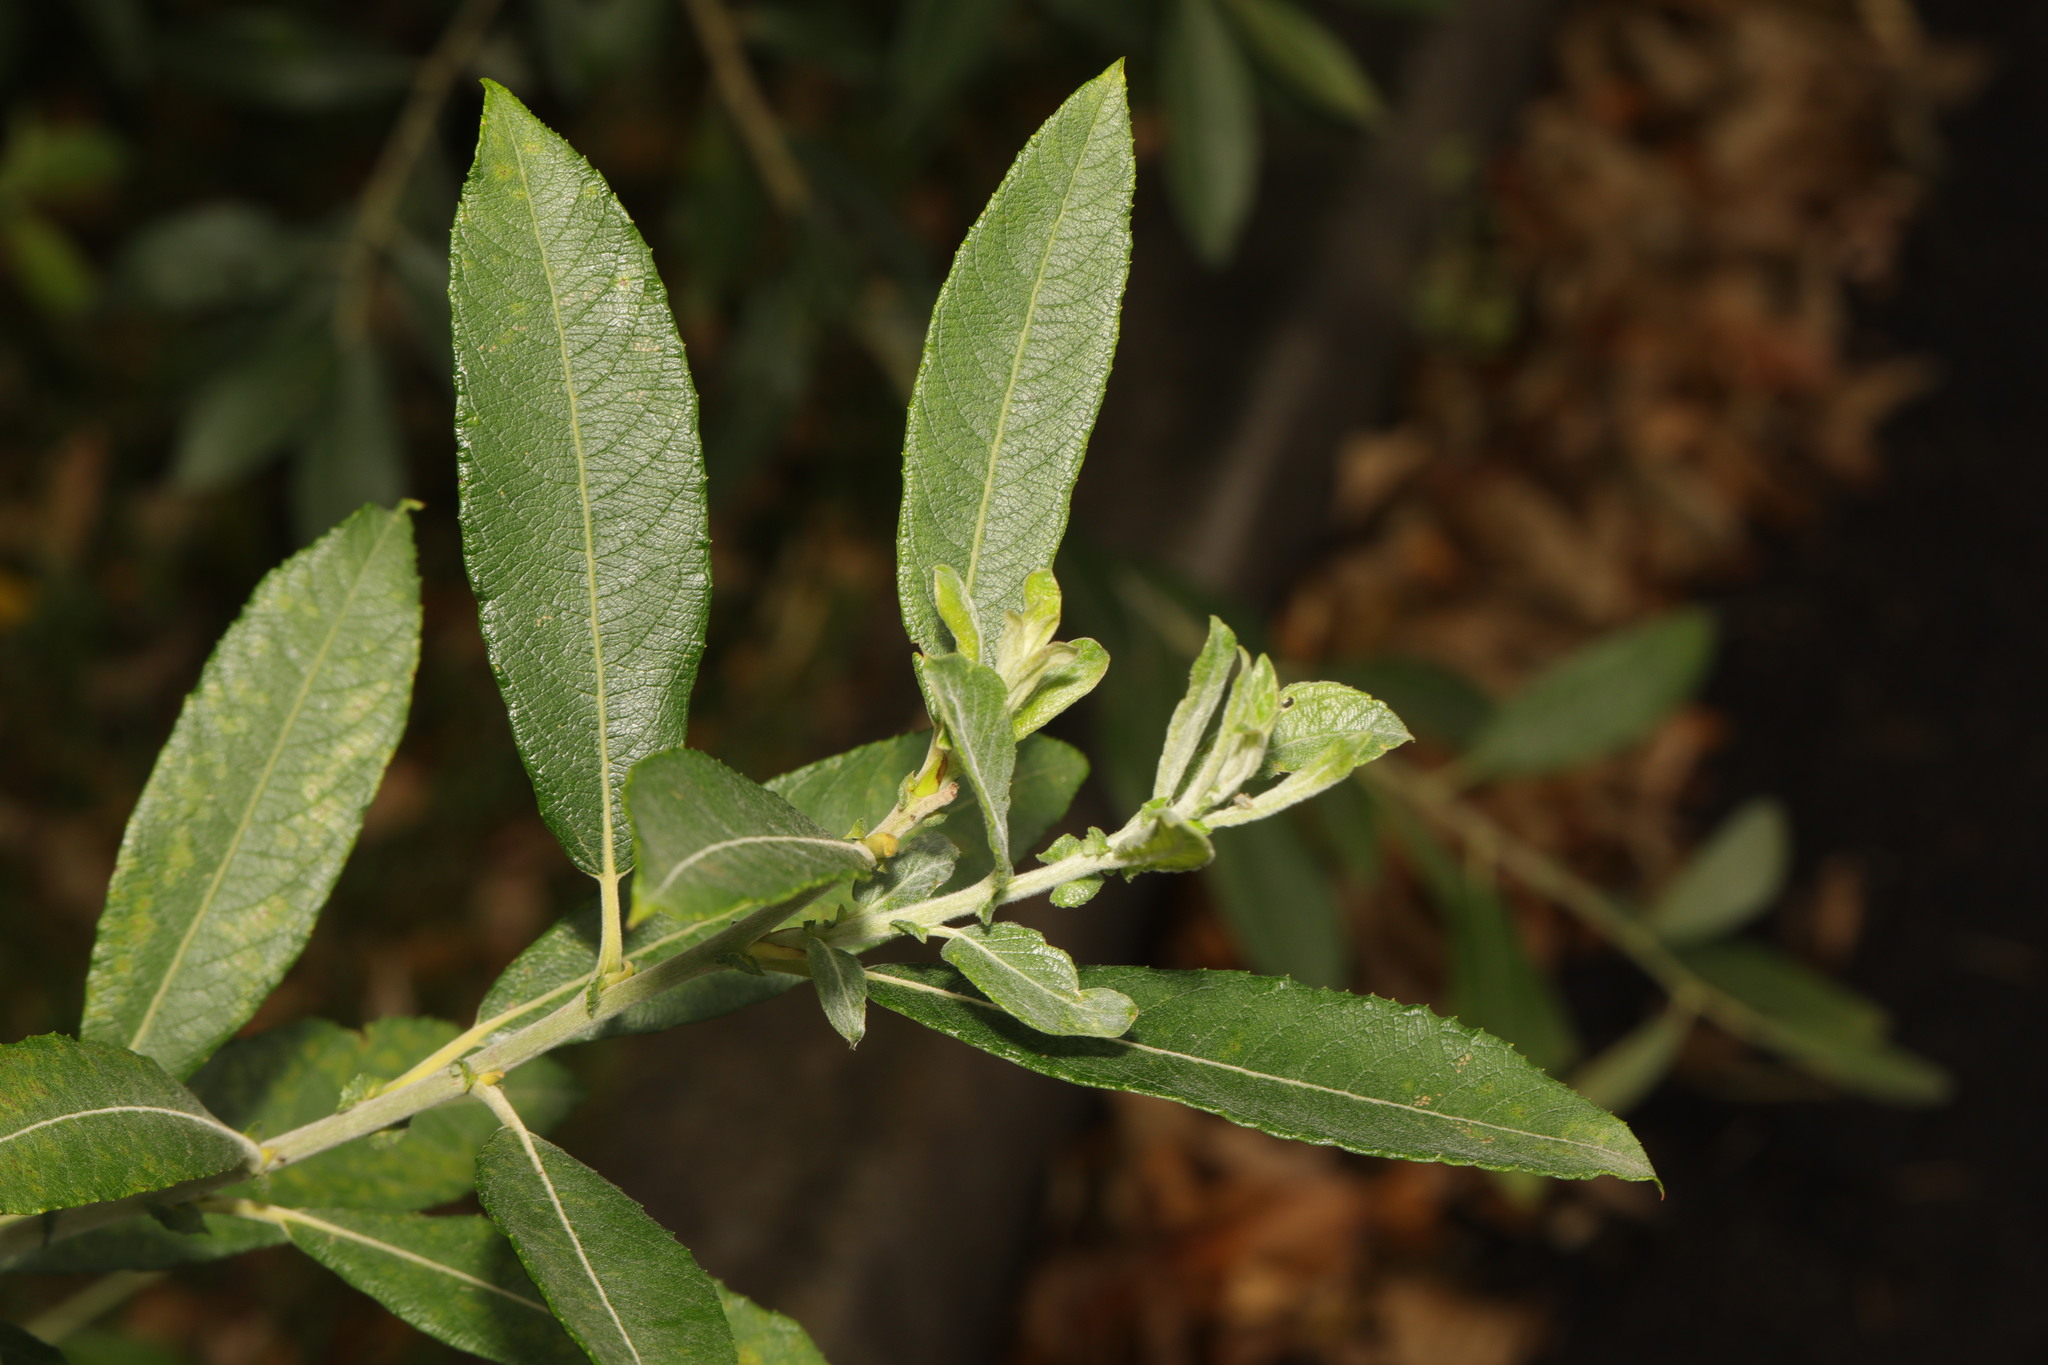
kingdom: Plantae
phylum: Tracheophyta
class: Magnoliopsida
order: Malpighiales
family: Salicaceae
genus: Salix
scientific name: Salix cinerea
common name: Common sallow
